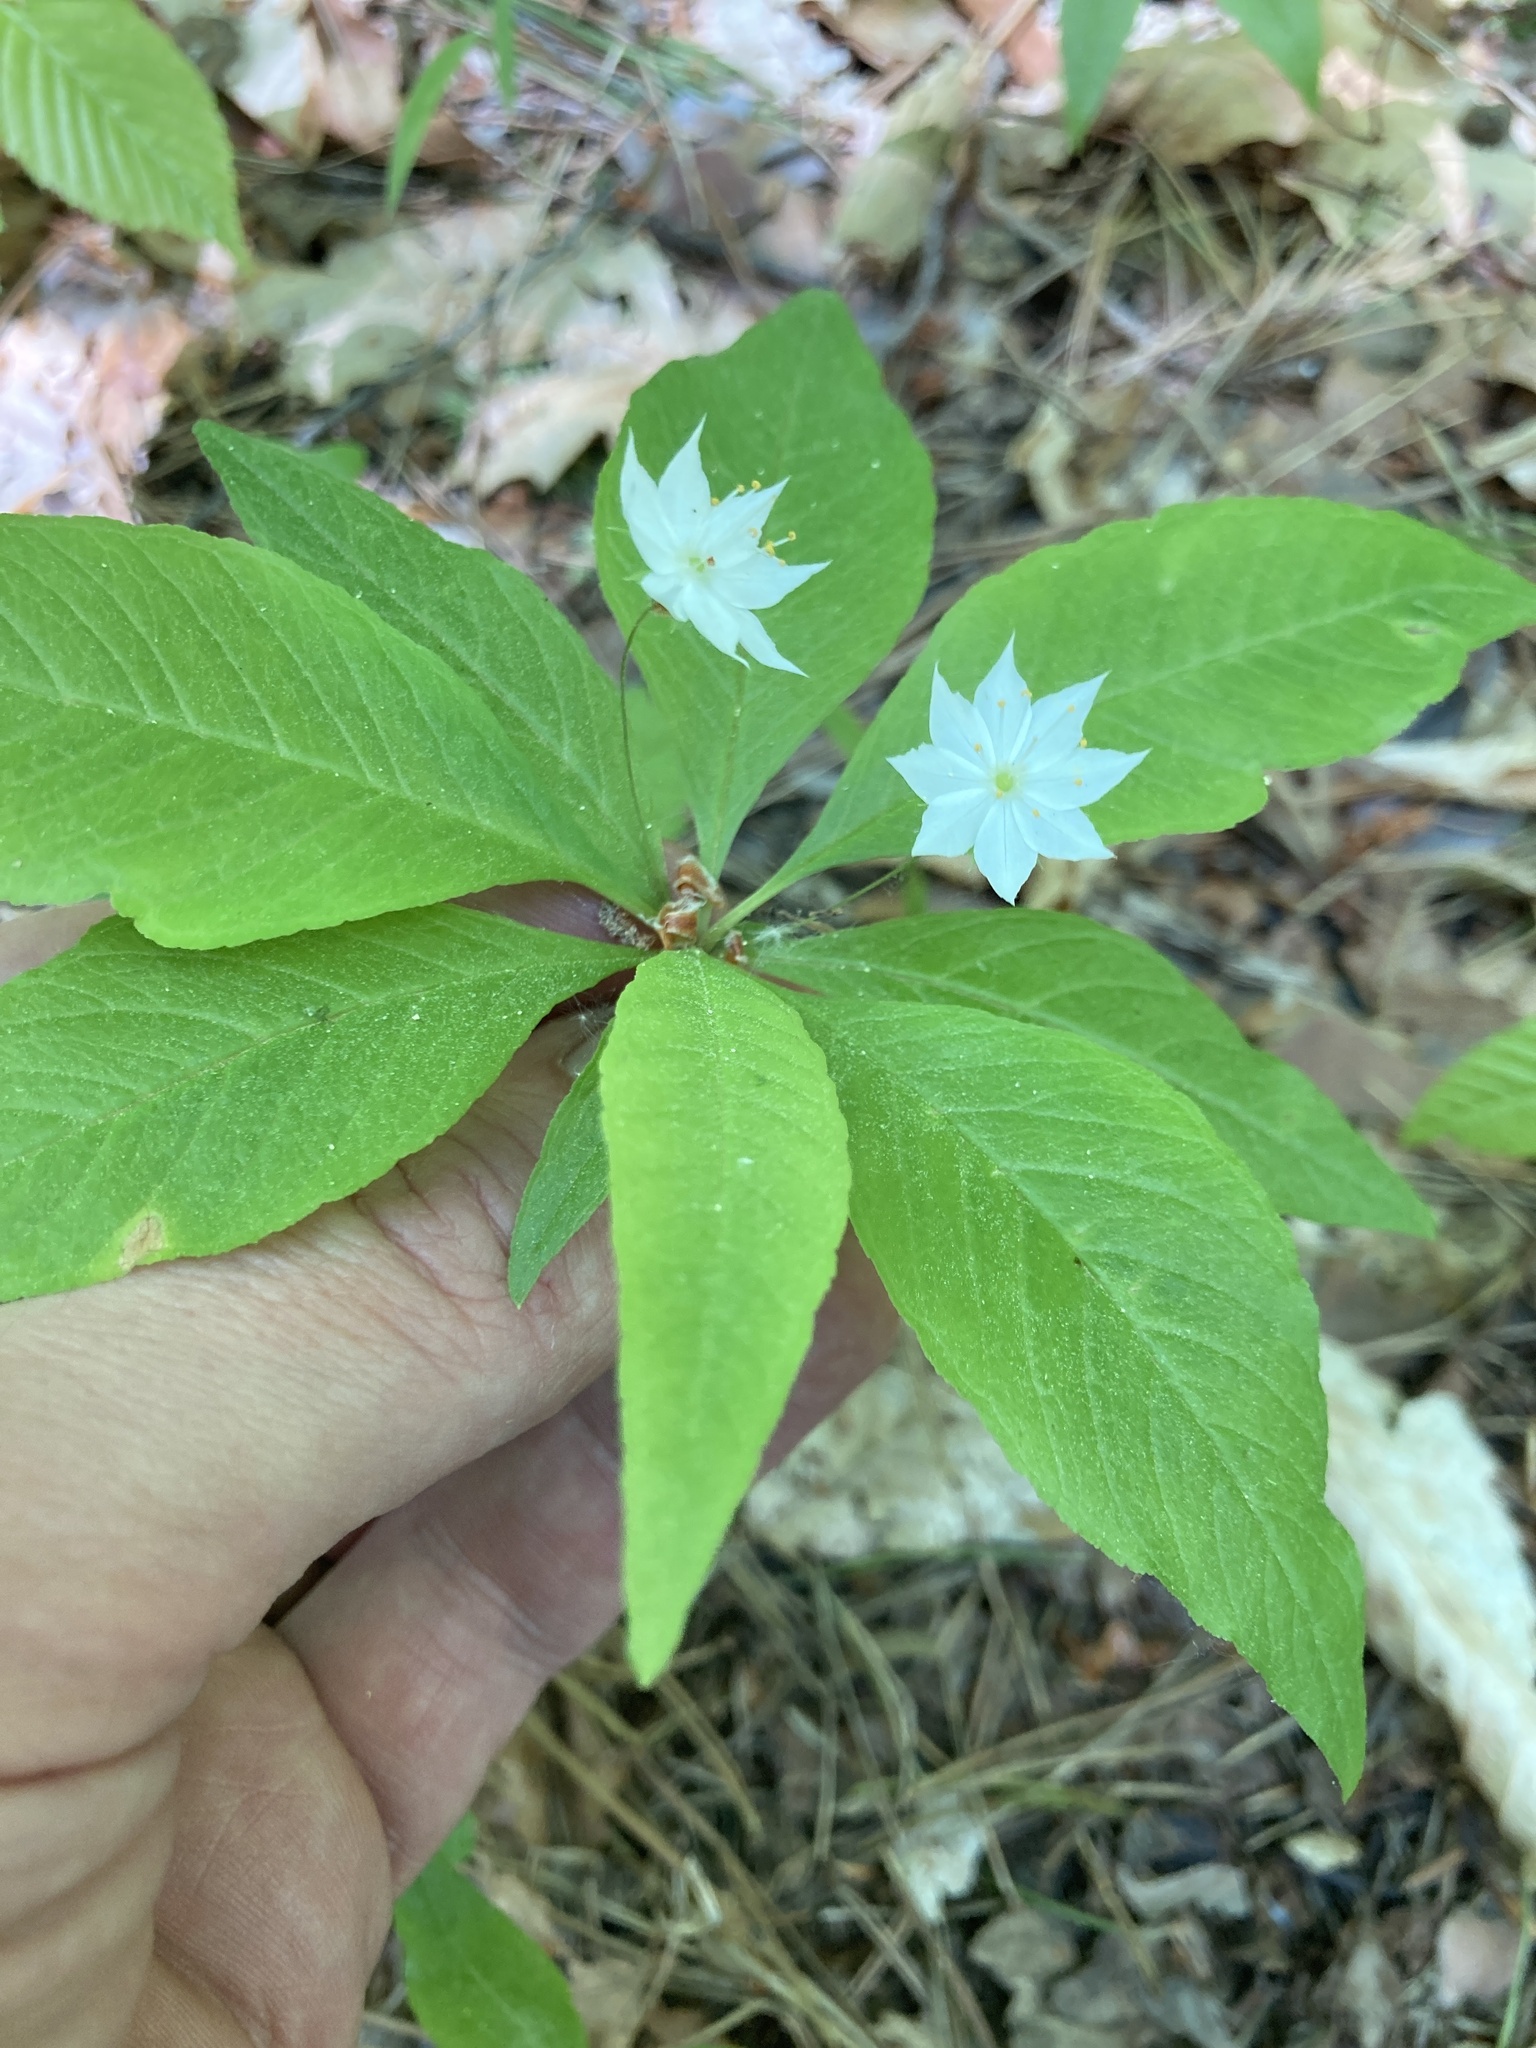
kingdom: Plantae
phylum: Tracheophyta
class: Magnoliopsida
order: Ericales
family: Primulaceae
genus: Lysimachia
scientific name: Lysimachia borealis
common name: American starflower
